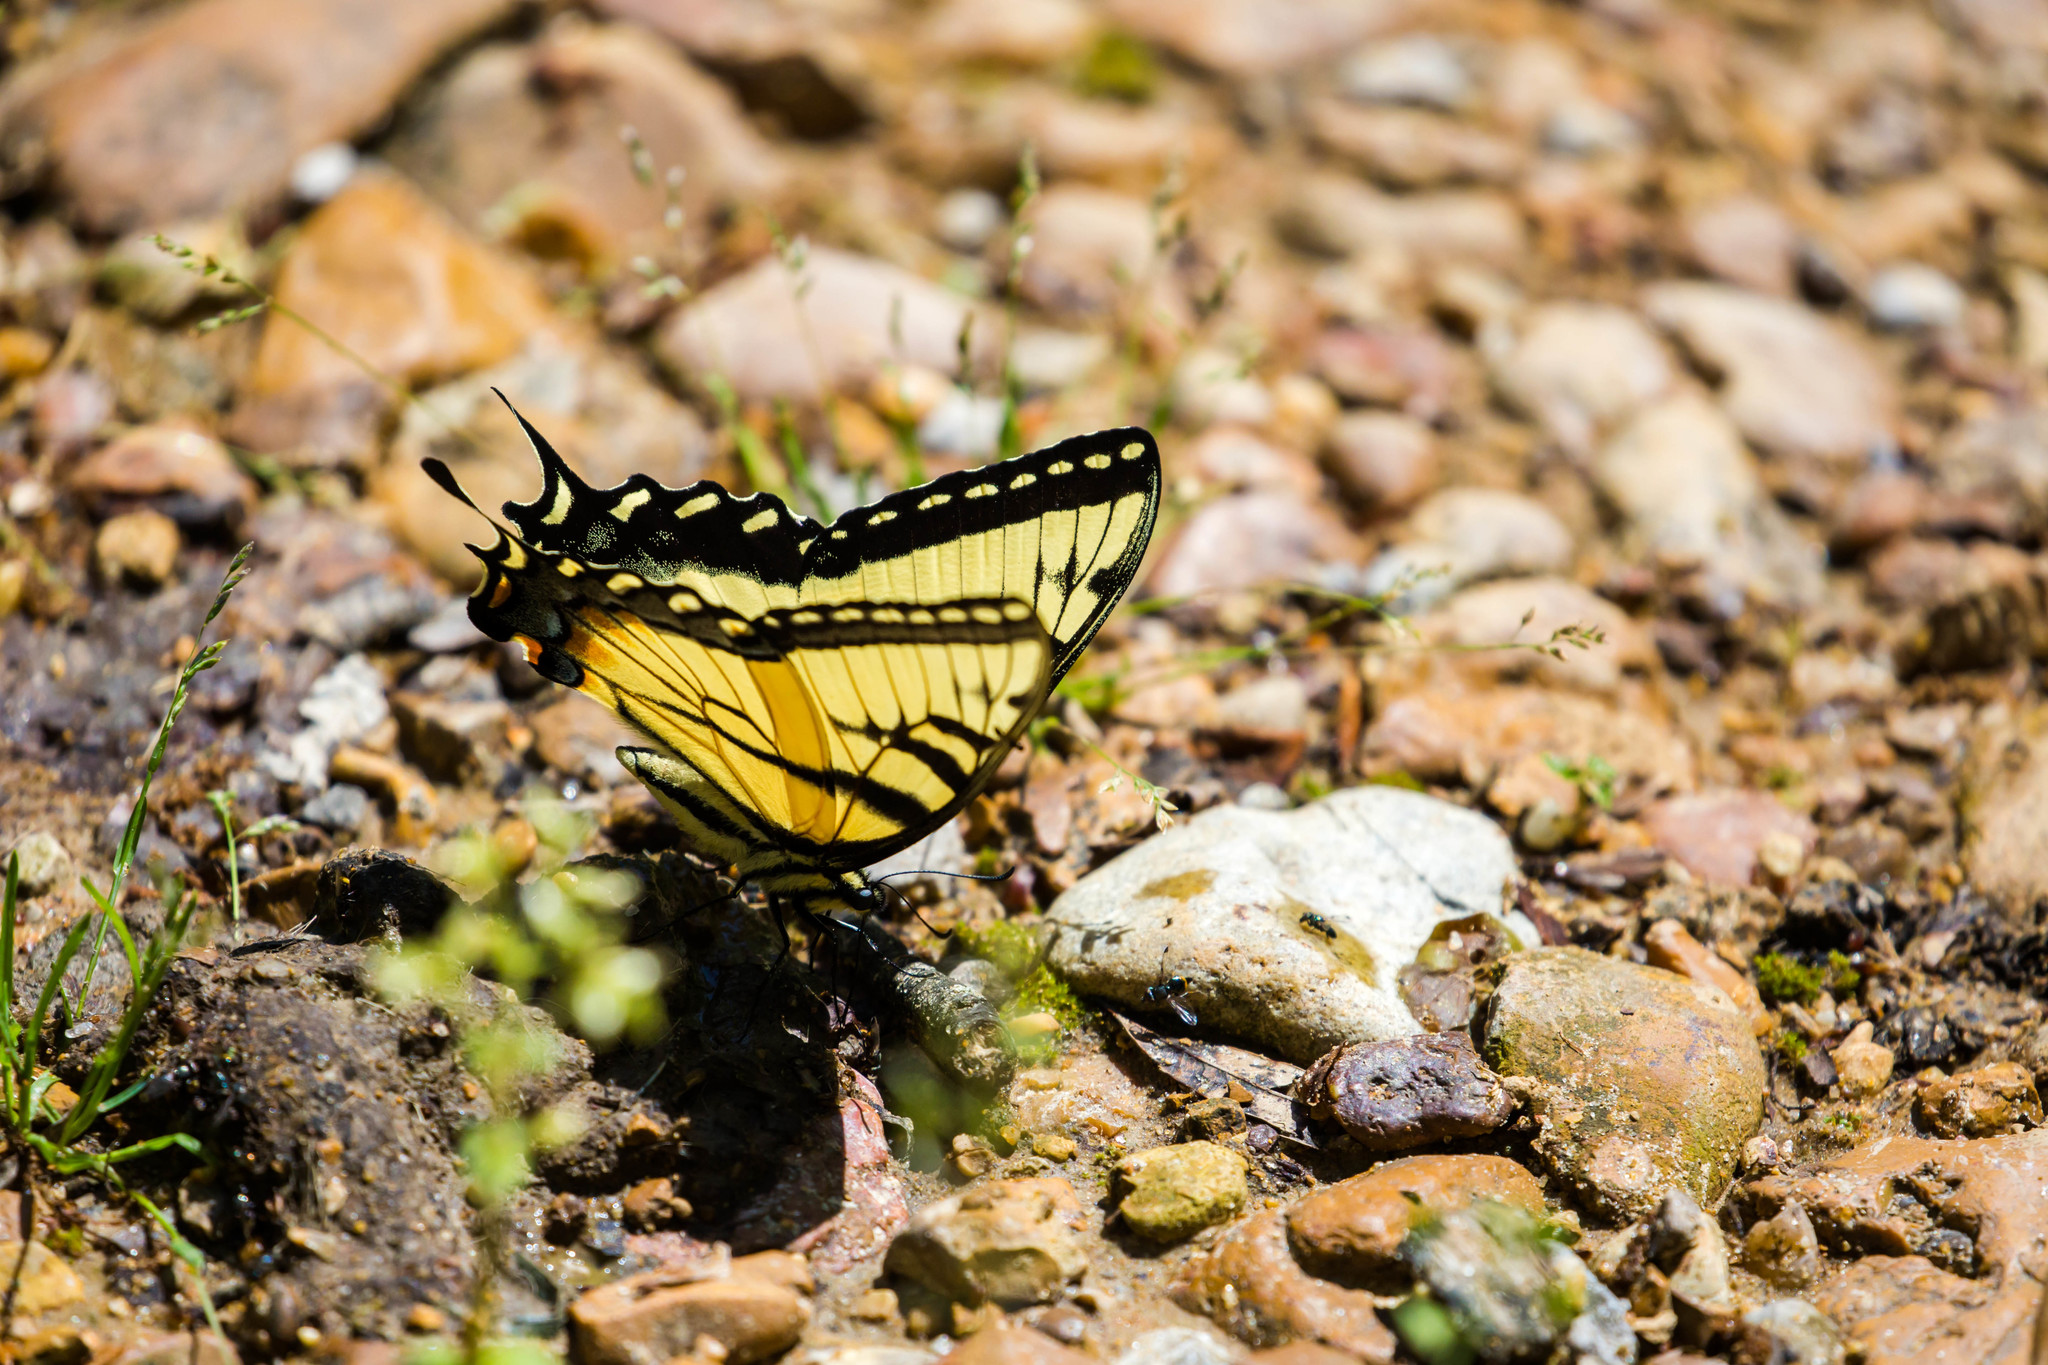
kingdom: Animalia
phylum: Arthropoda
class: Insecta
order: Lepidoptera
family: Papilionidae
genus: Papilio
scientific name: Papilio glaucus
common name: Tiger swallowtail
